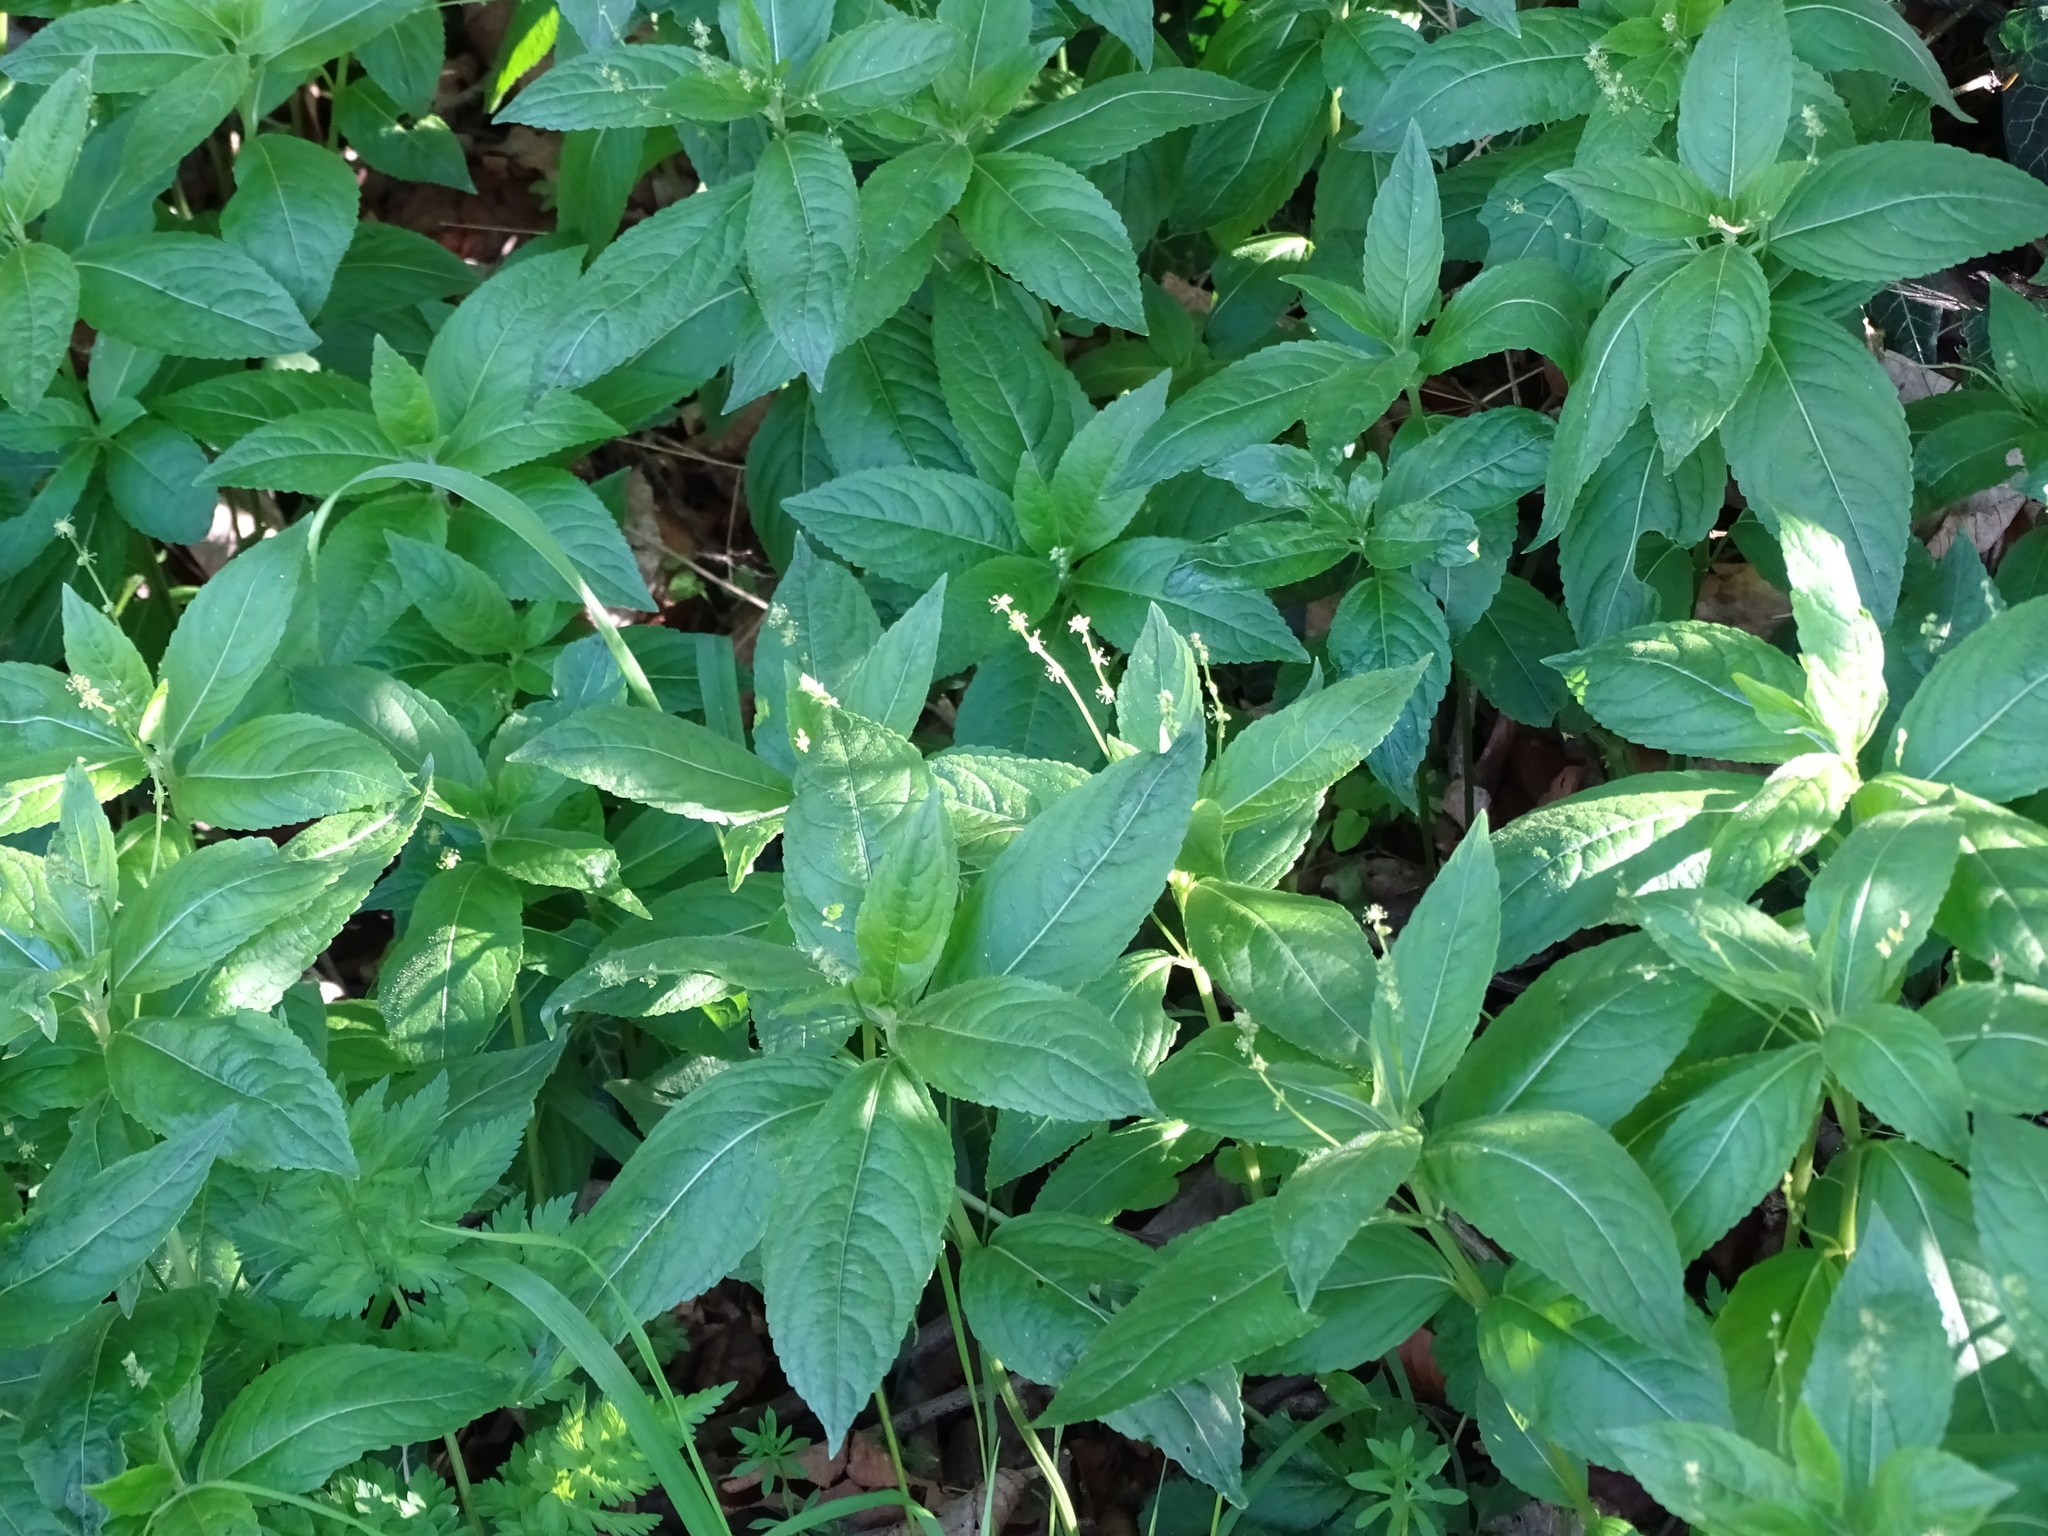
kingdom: Plantae
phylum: Tracheophyta
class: Magnoliopsida
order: Malpighiales
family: Euphorbiaceae
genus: Mercurialis
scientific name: Mercurialis perennis
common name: Dog mercury
